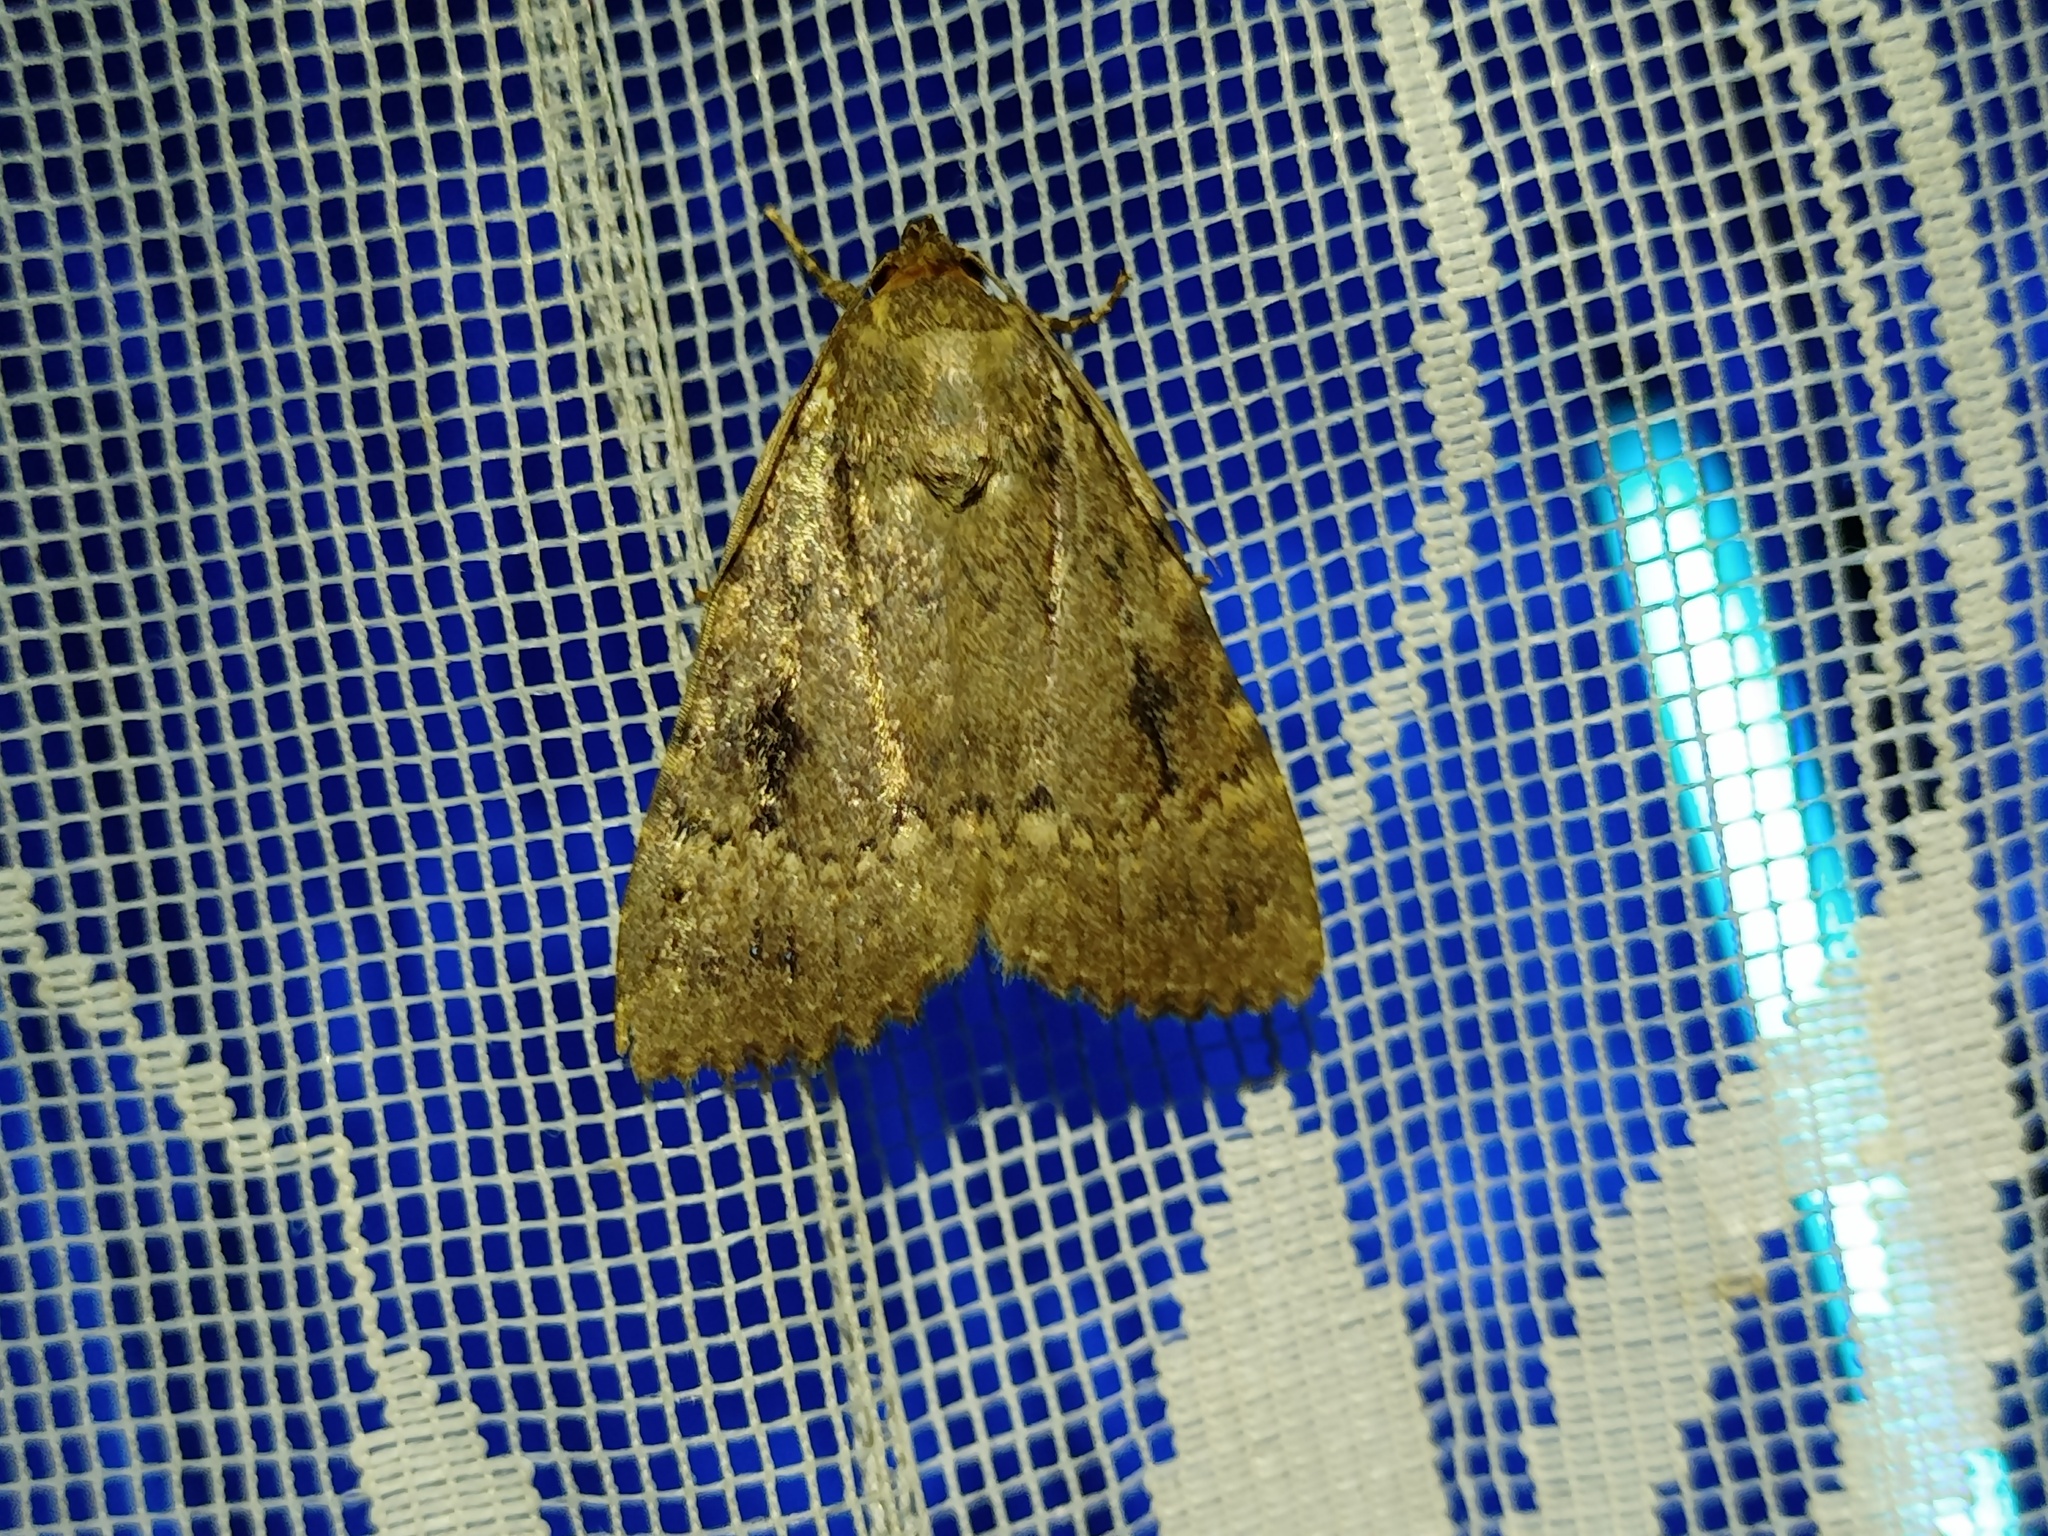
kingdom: Animalia
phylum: Arthropoda
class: Insecta
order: Lepidoptera
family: Noctuidae
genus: Amphipyra
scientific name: Amphipyra pyramidea
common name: Copper underwing
